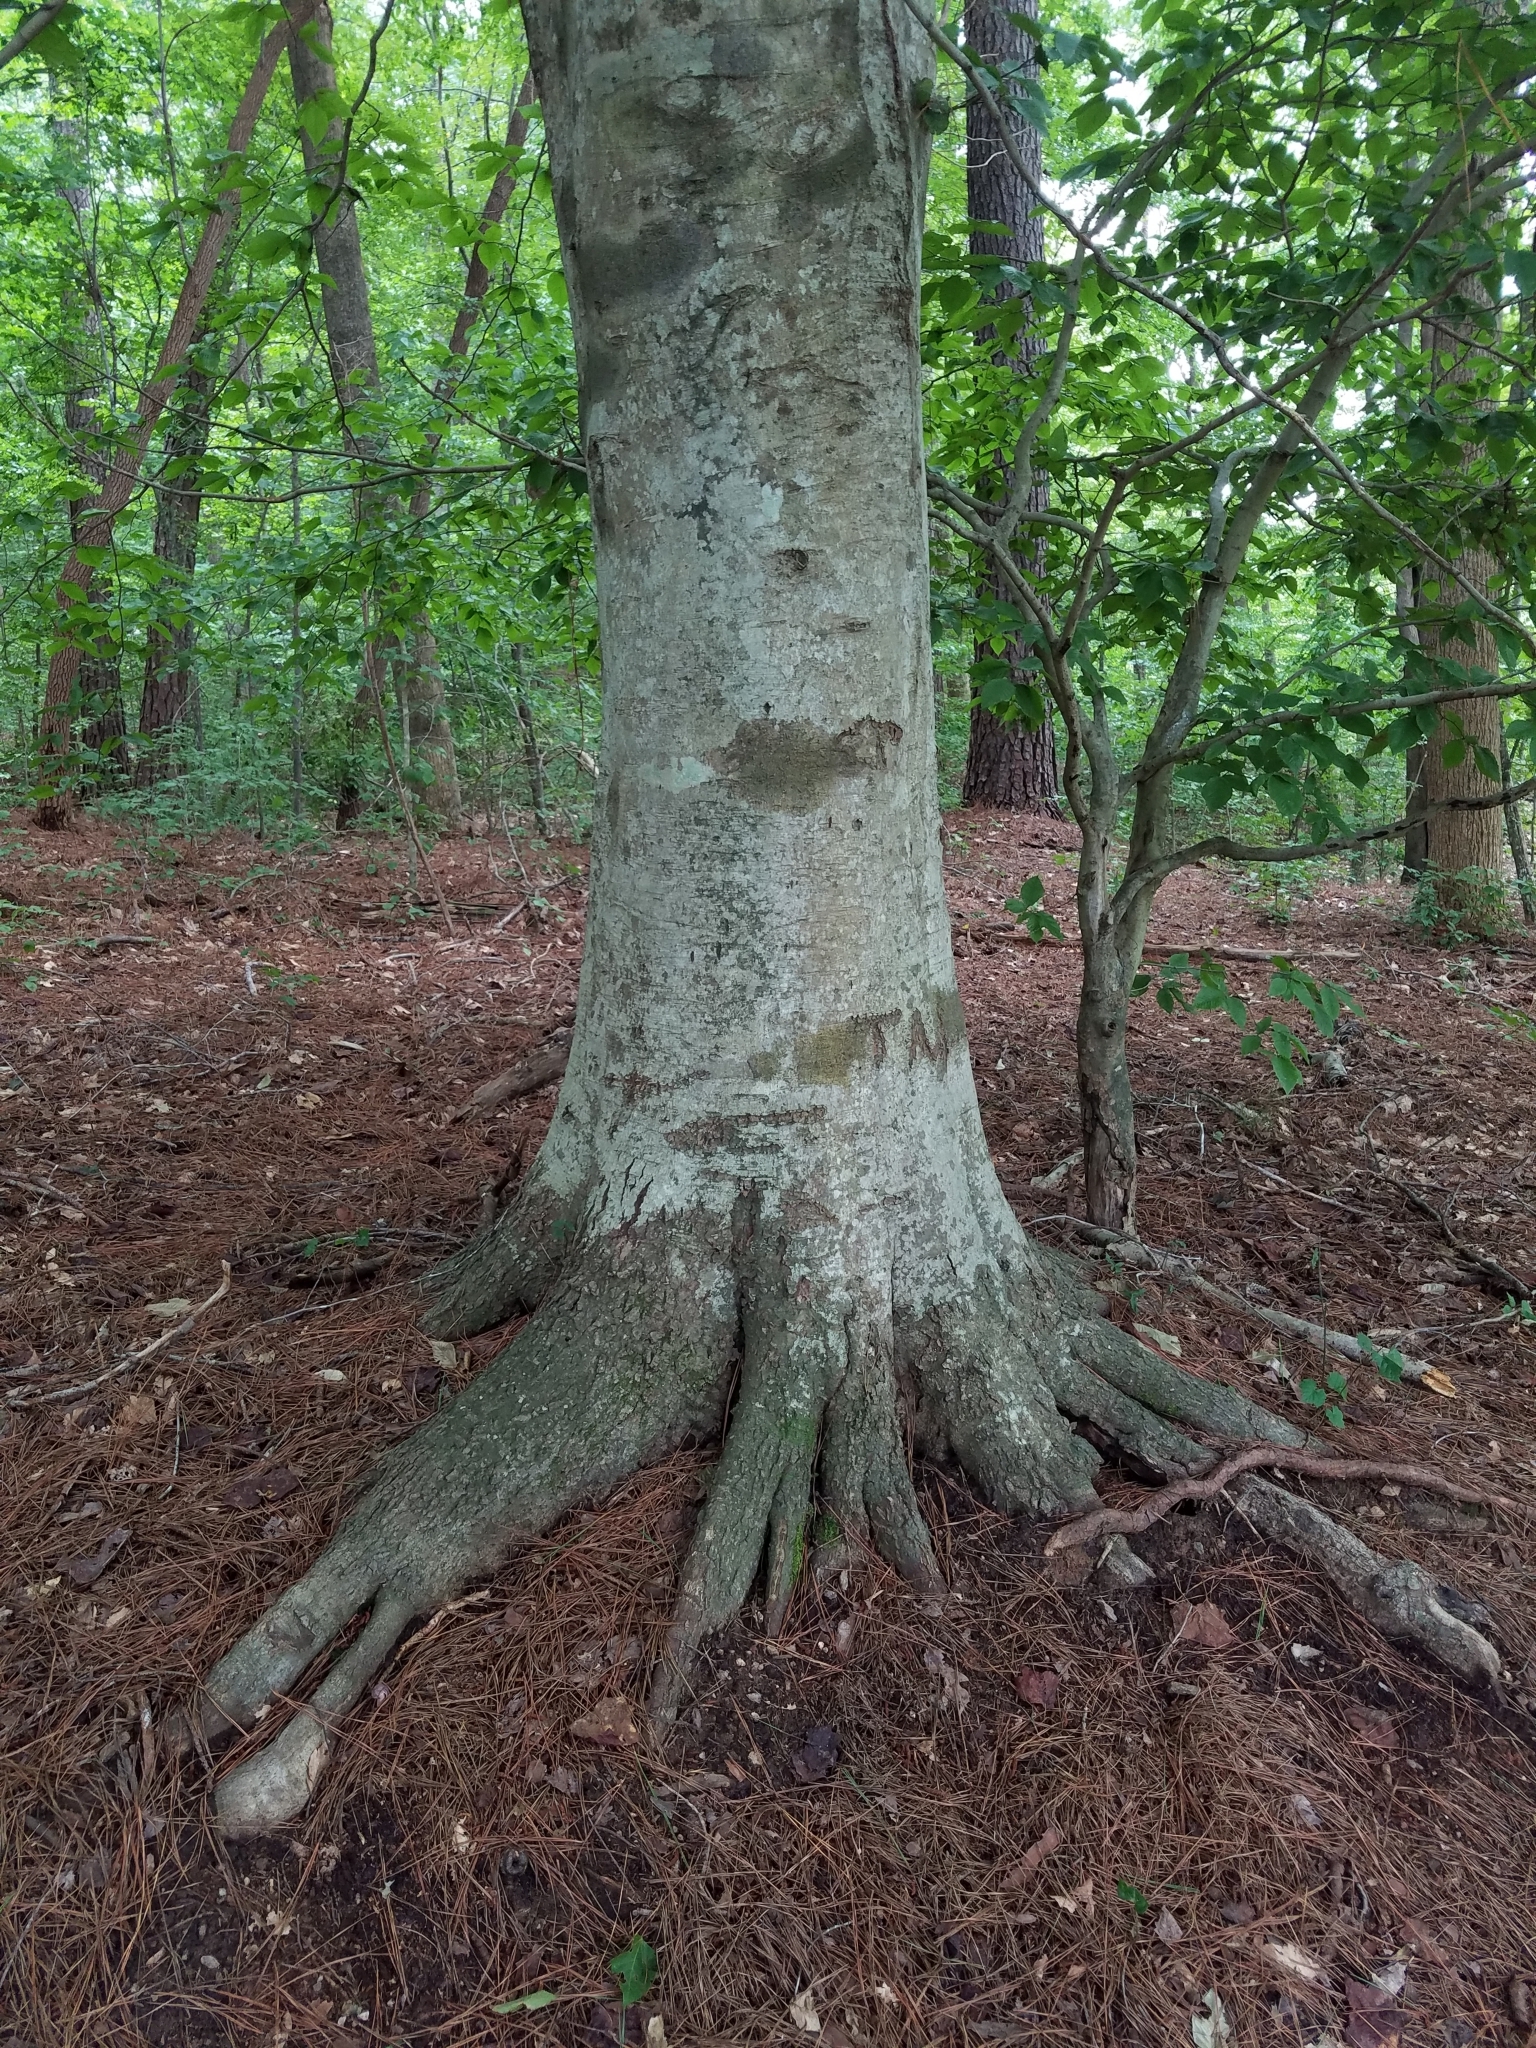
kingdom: Plantae
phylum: Tracheophyta
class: Magnoliopsida
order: Fagales
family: Fagaceae
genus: Fagus
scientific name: Fagus grandifolia
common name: American beech
